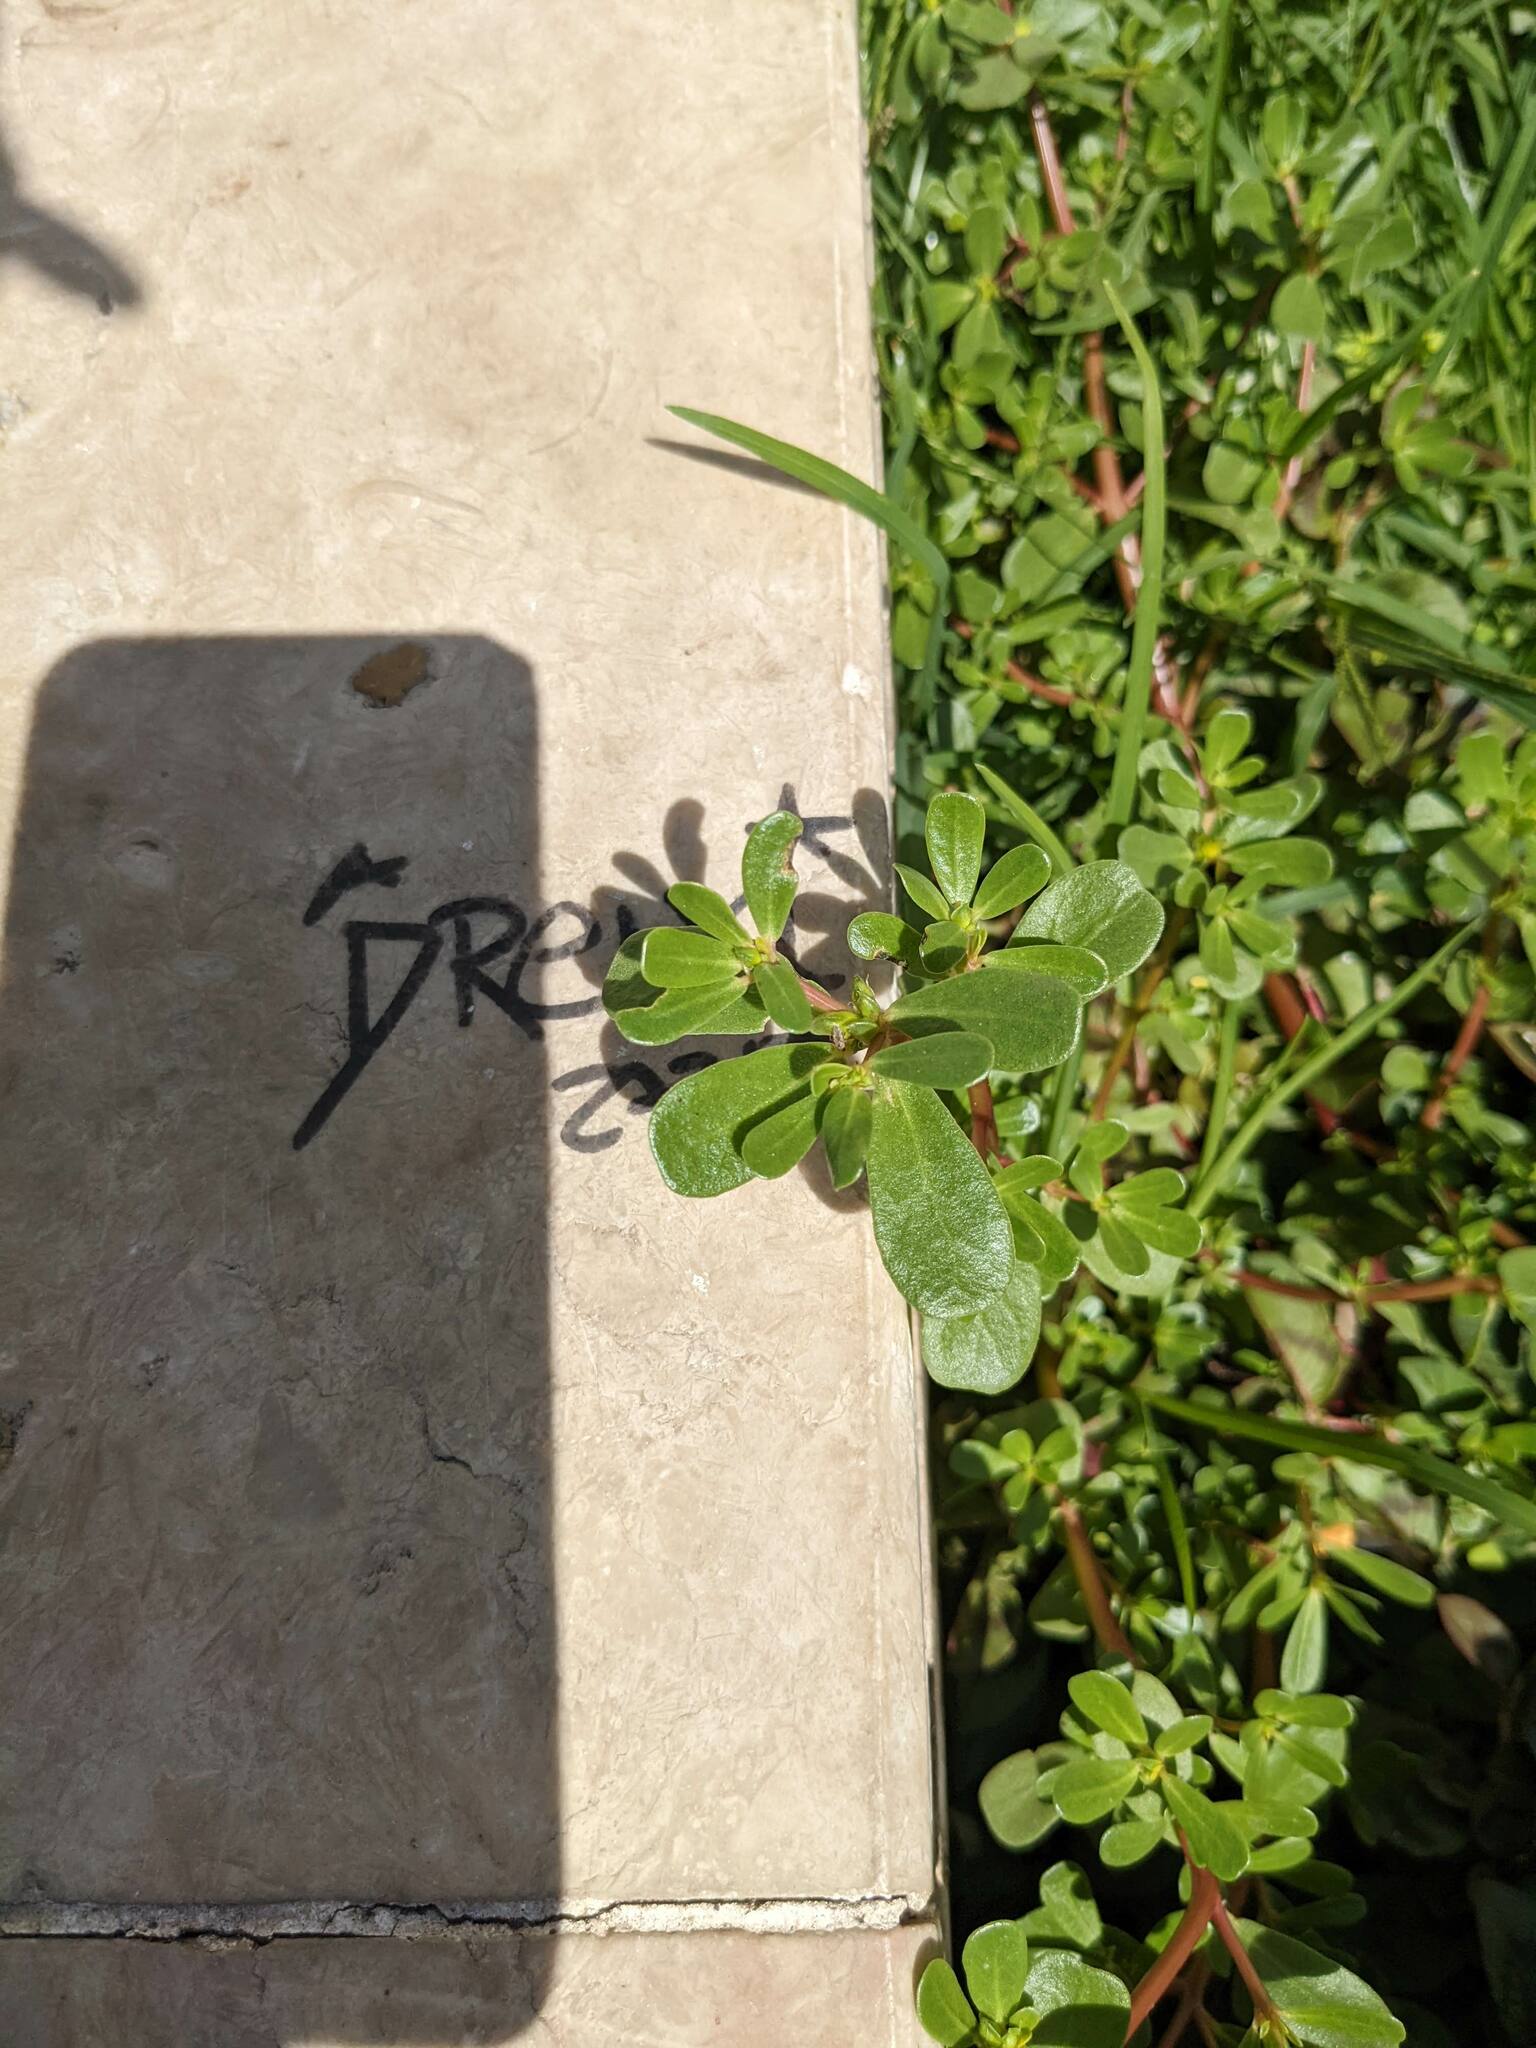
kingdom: Plantae
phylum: Tracheophyta
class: Magnoliopsida
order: Caryophyllales
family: Portulacaceae
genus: Portulaca
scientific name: Portulaca oleracea
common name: Common purslane
